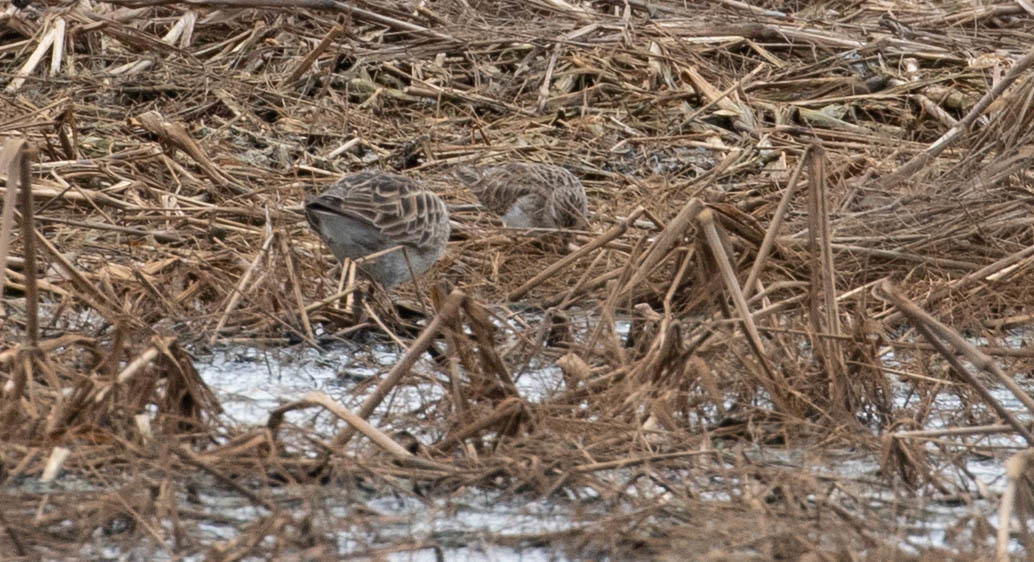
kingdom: Animalia
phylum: Chordata
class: Aves
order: Charadriiformes
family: Scolopacidae
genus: Calidris
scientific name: Calidris minutilla
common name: Least sandpiper
